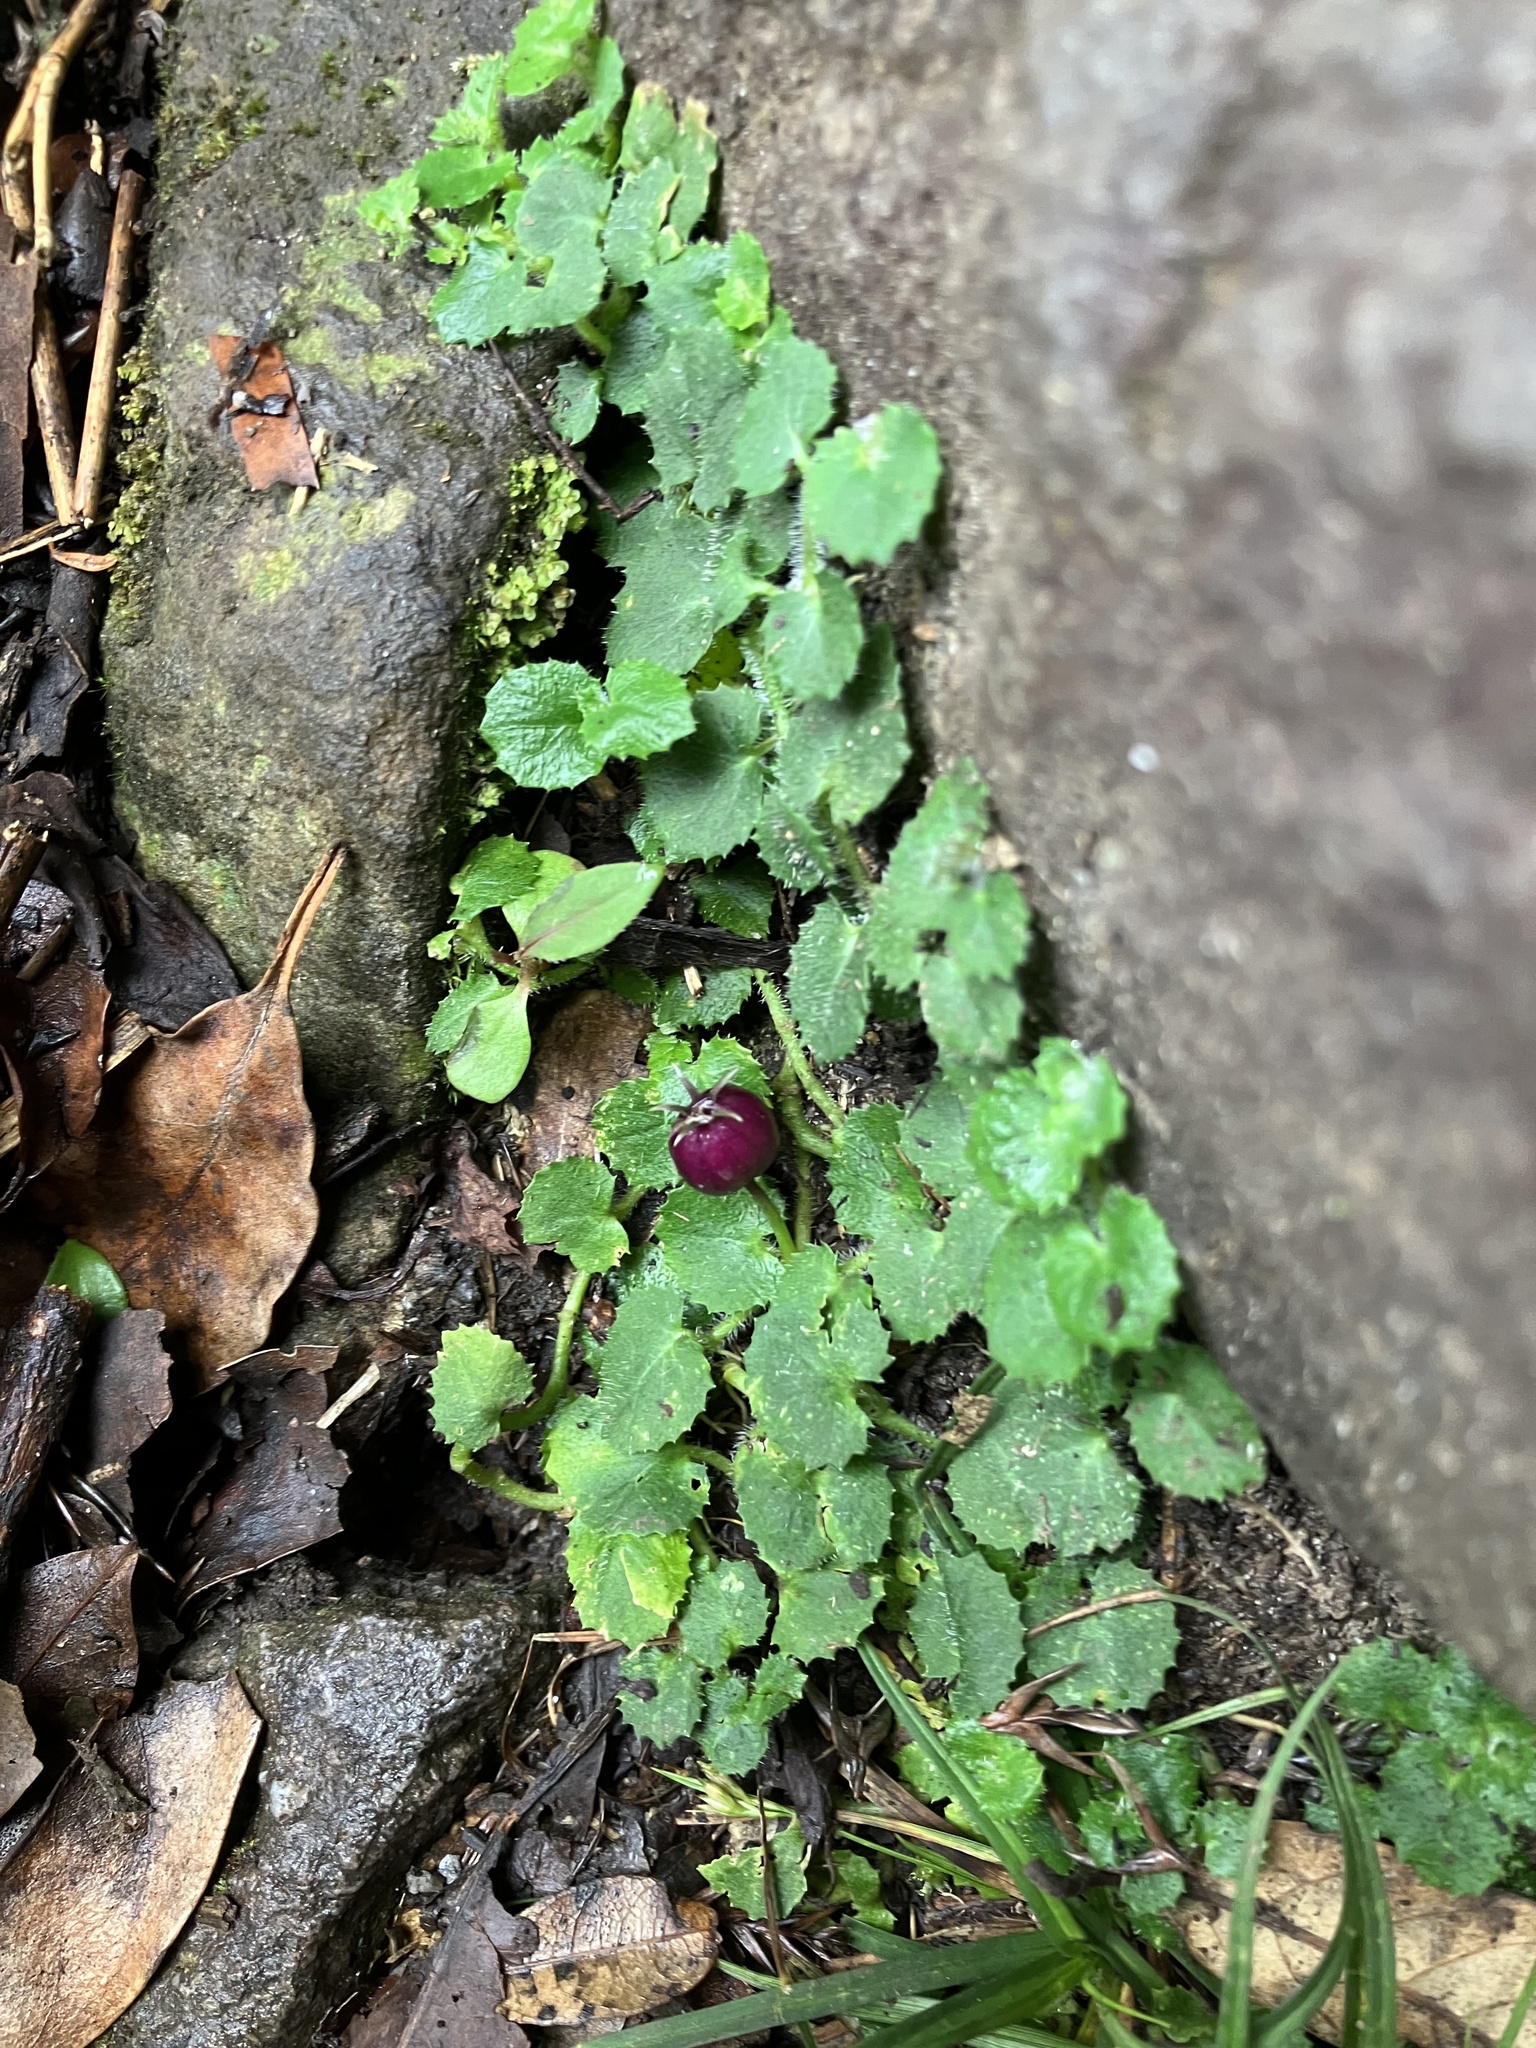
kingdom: Plantae
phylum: Tracheophyta
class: Magnoliopsida
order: Asterales
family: Campanulaceae
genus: Lobelia
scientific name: Lobelia nummularia
